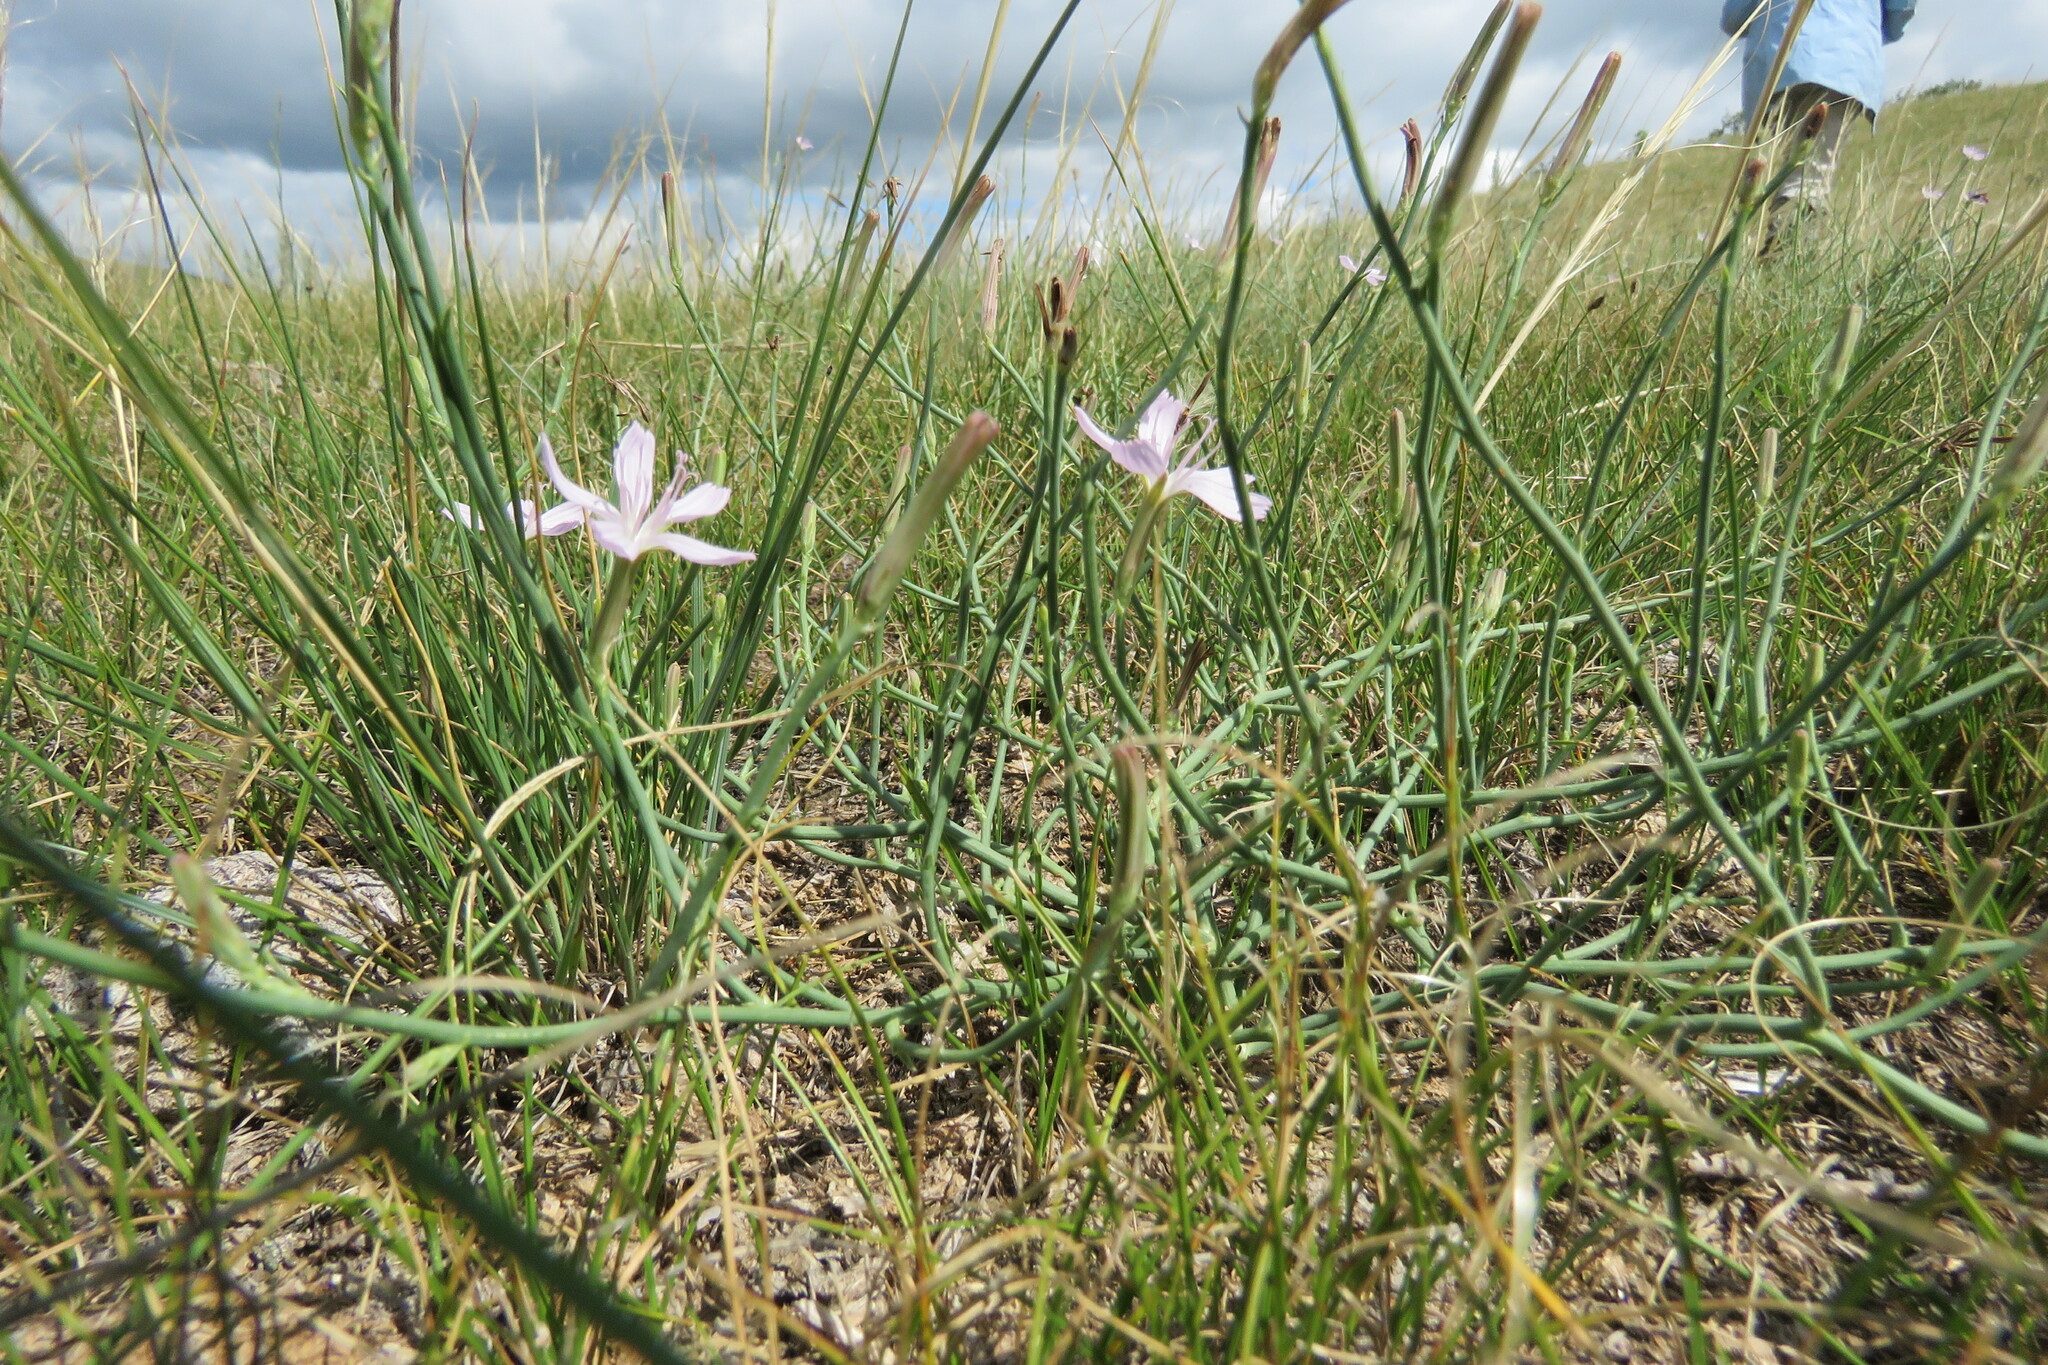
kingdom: Plantae
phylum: Tracheophyta
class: Magnoliopsida
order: Asterales
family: Asteraceae
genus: Lygodesmia
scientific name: Lygodesmia juncea
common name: Common skeletonweed
